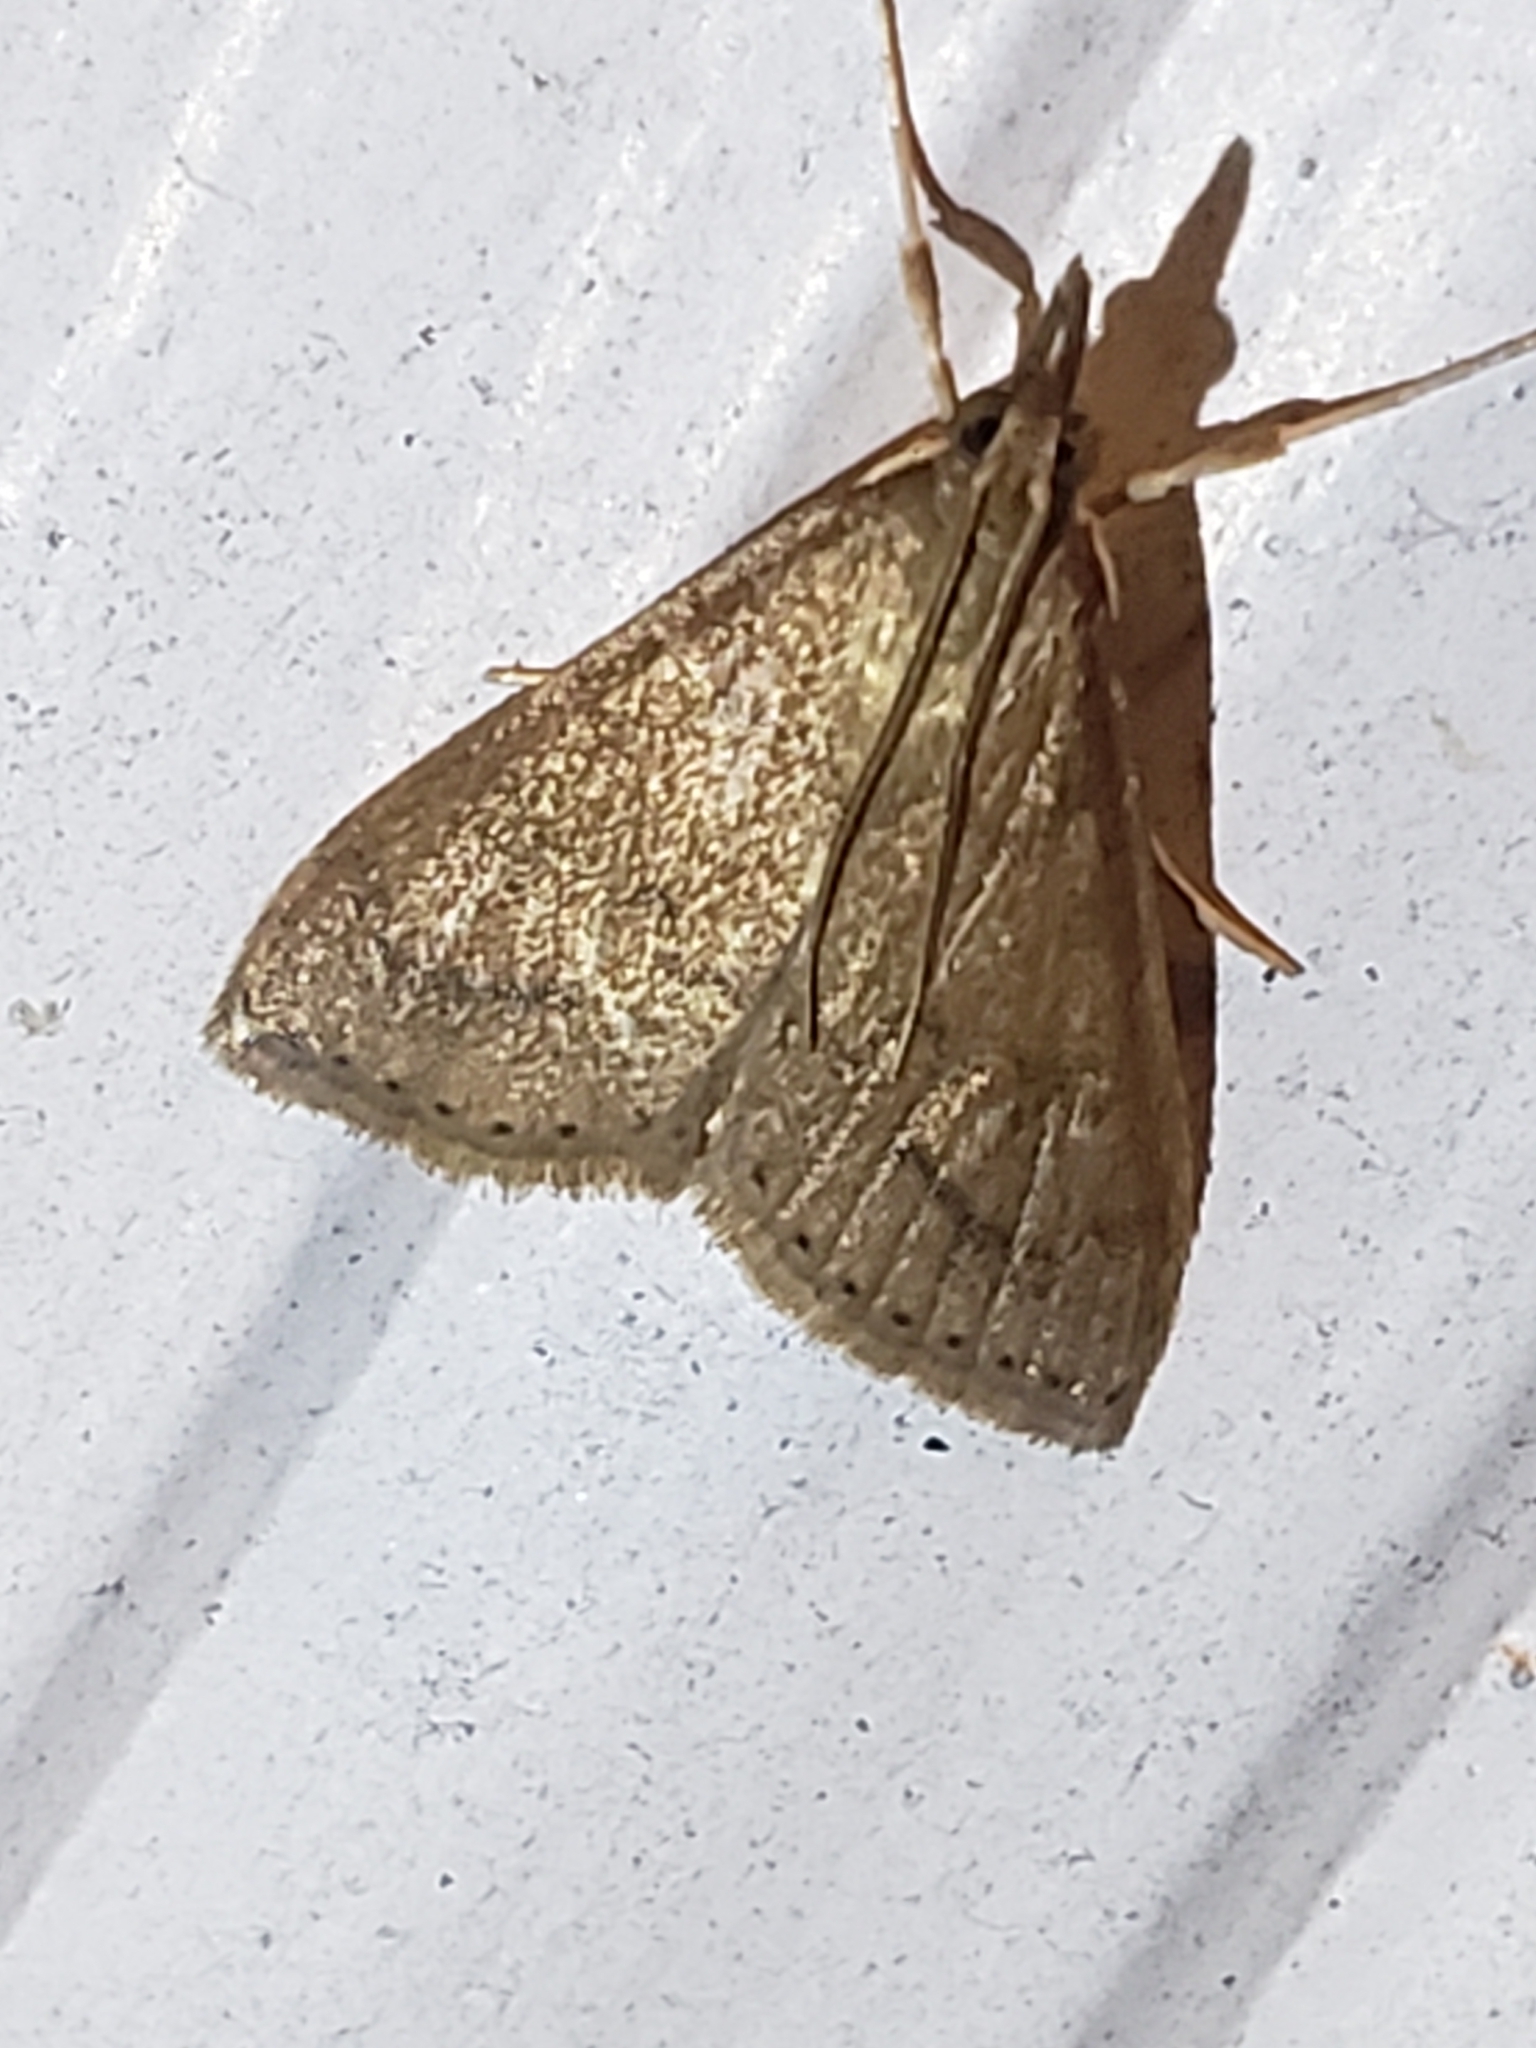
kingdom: Animalia
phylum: Arthropoda
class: Insecta
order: Lepidoptera
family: Crambidae
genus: Udea
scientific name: Udea rubigalis
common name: Celery leaftier moth
